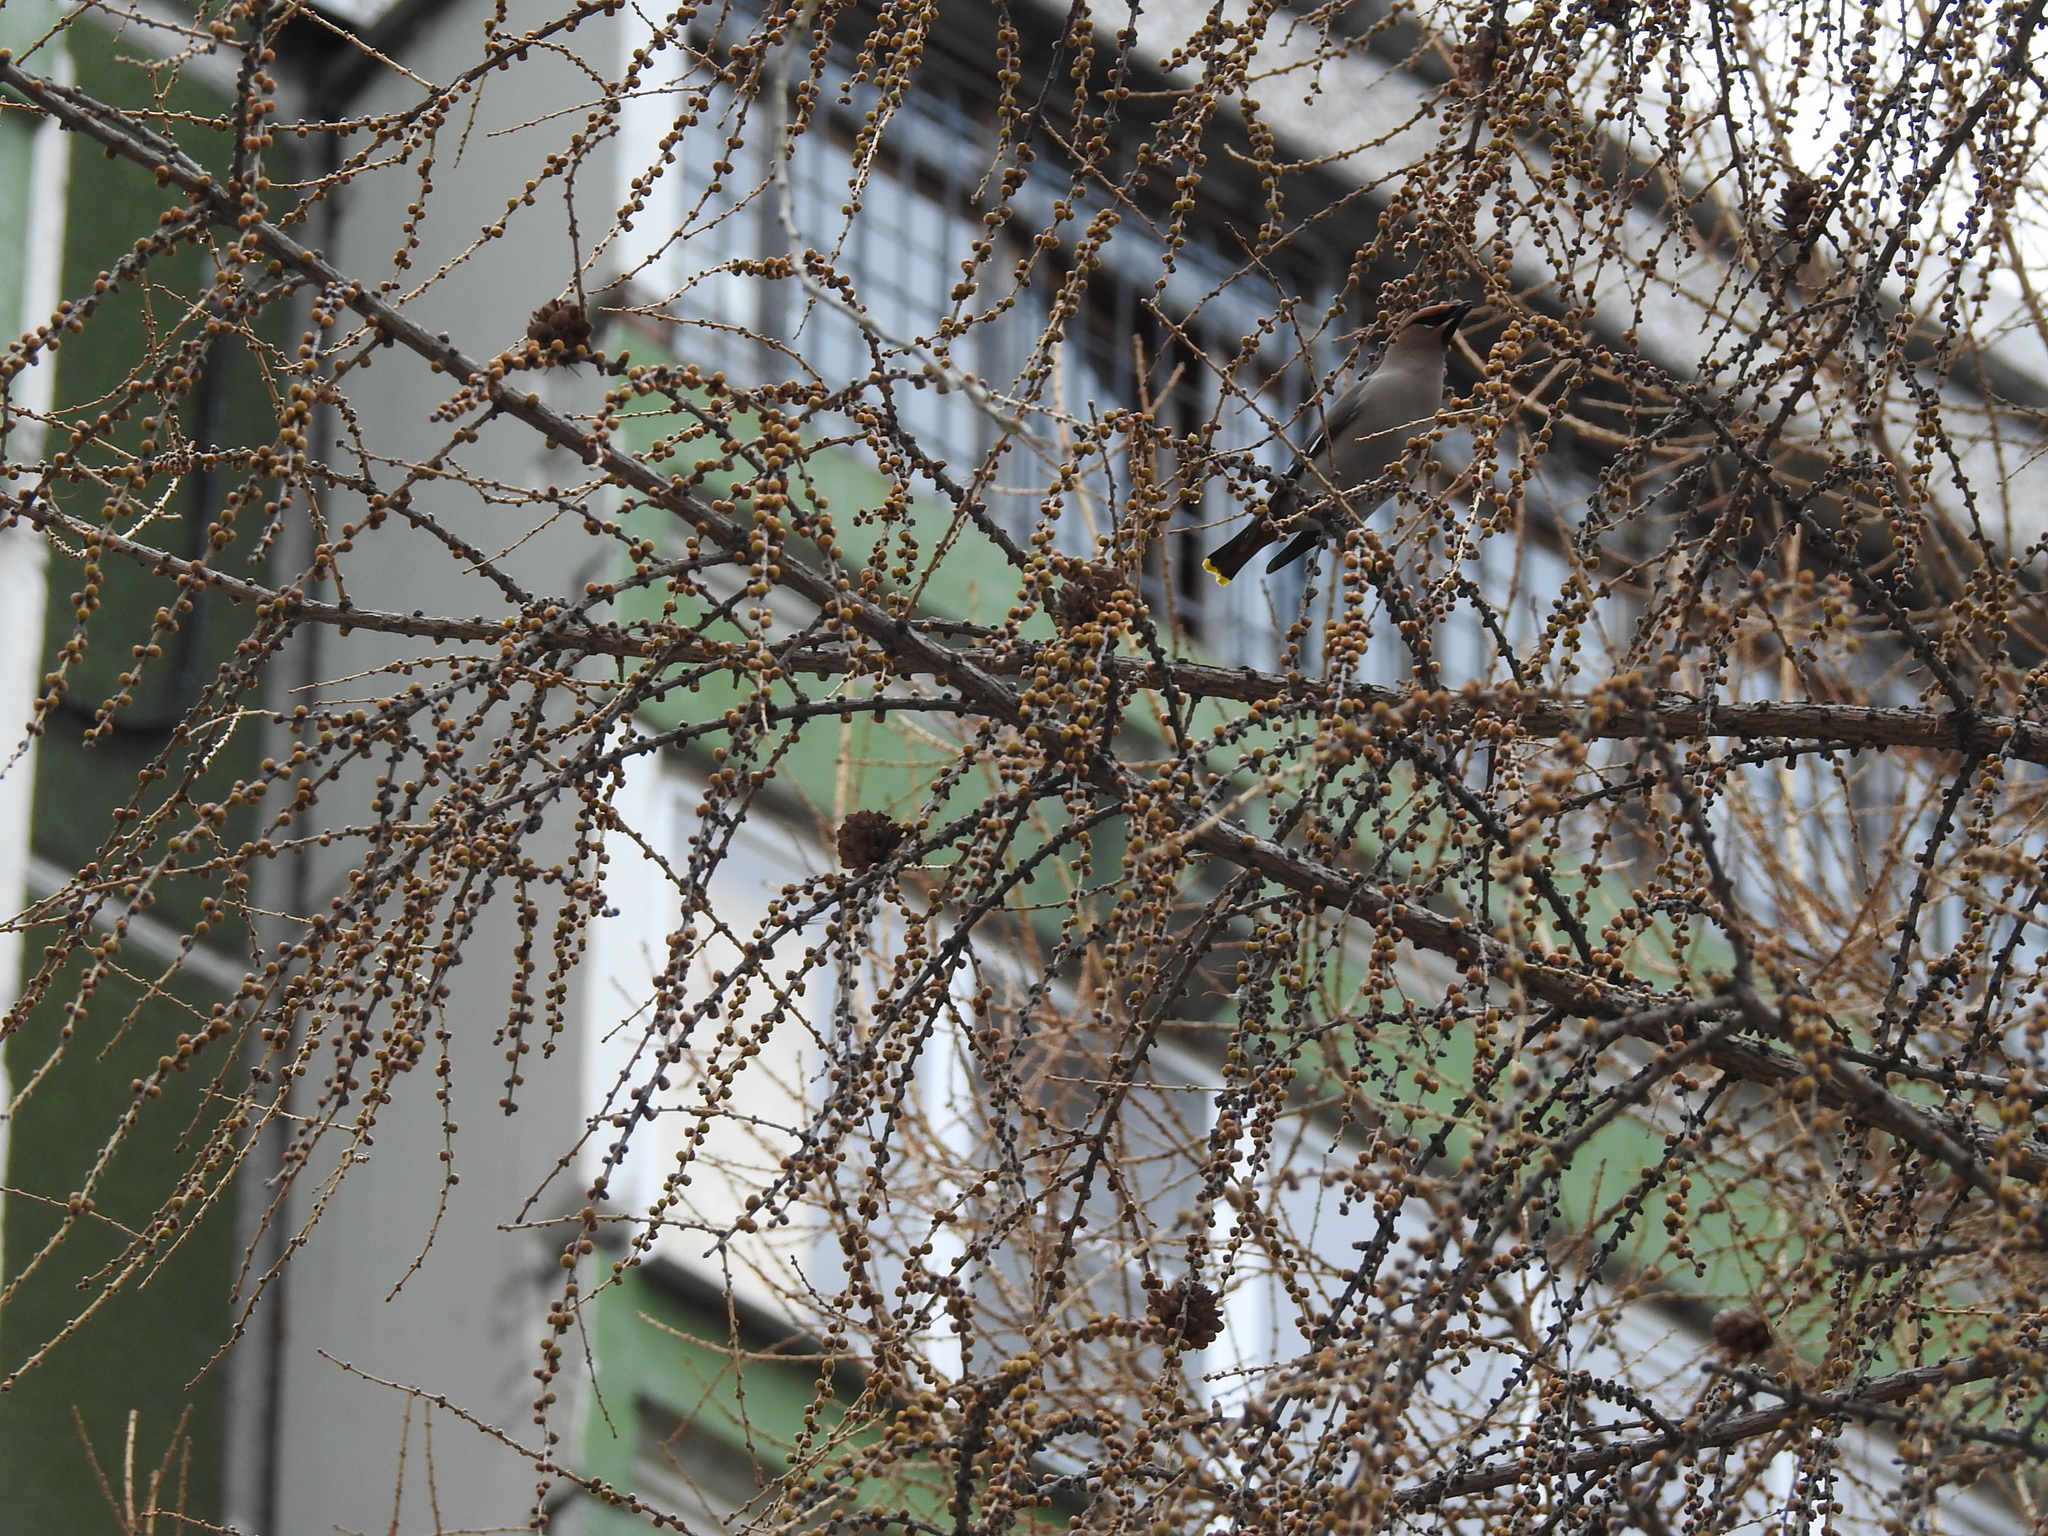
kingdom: Animalia
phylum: Chordata
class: Aves
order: Passeriformes
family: Bombycillidae
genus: Bombycilla
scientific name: Bombycilla garrulus
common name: Bohemian waxwing
